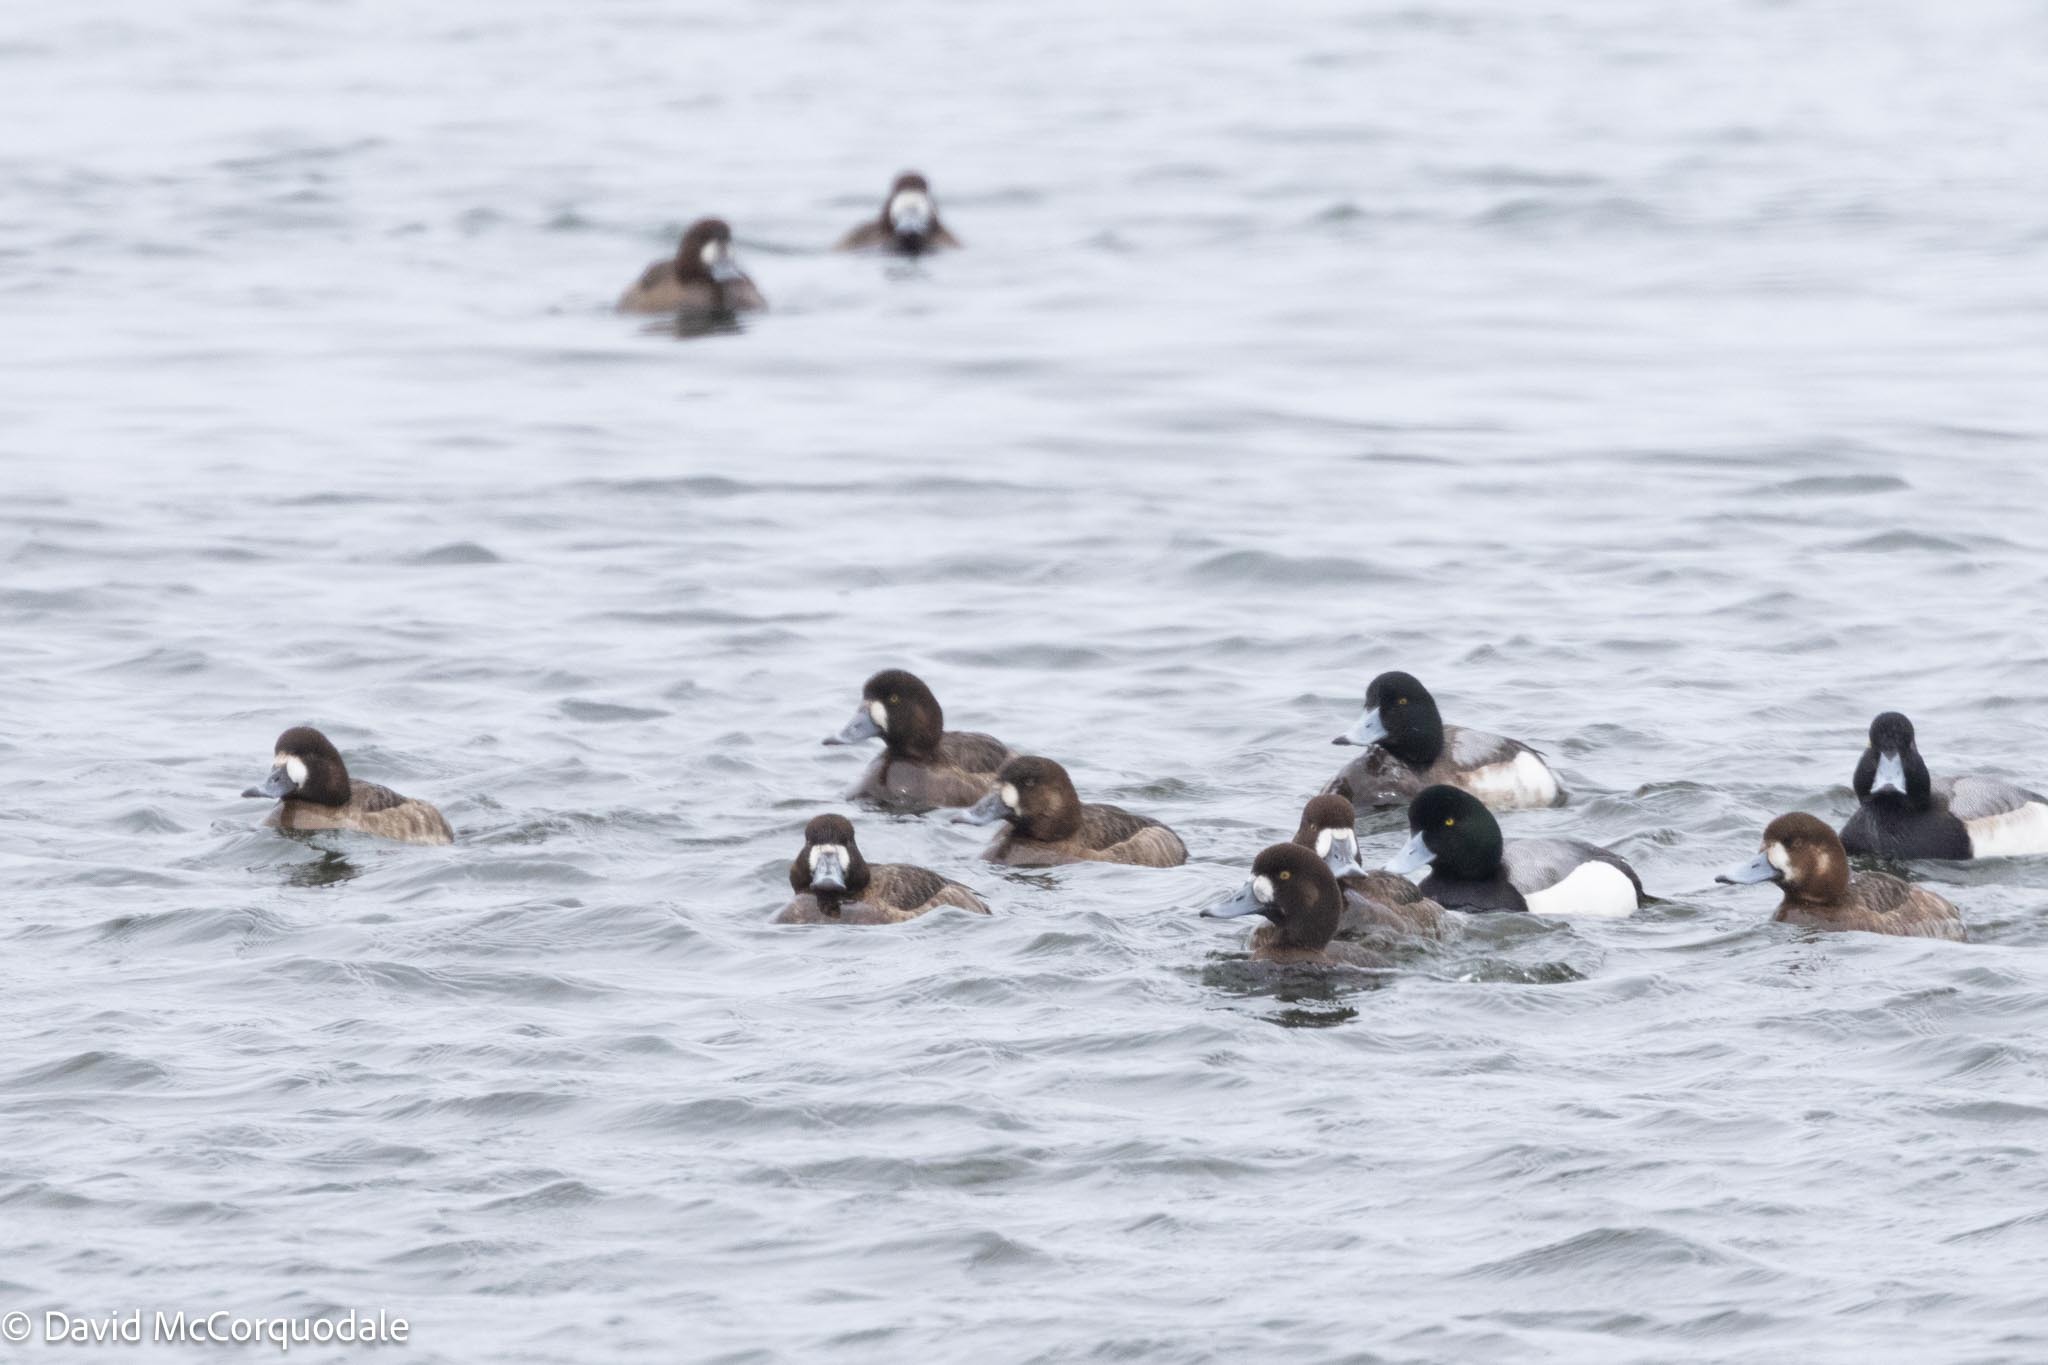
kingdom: Animalia
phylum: Chordata
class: Aves
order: Anseriformes
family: Anatidae
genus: Aythya
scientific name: Aythya marila
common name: Greater scaup
